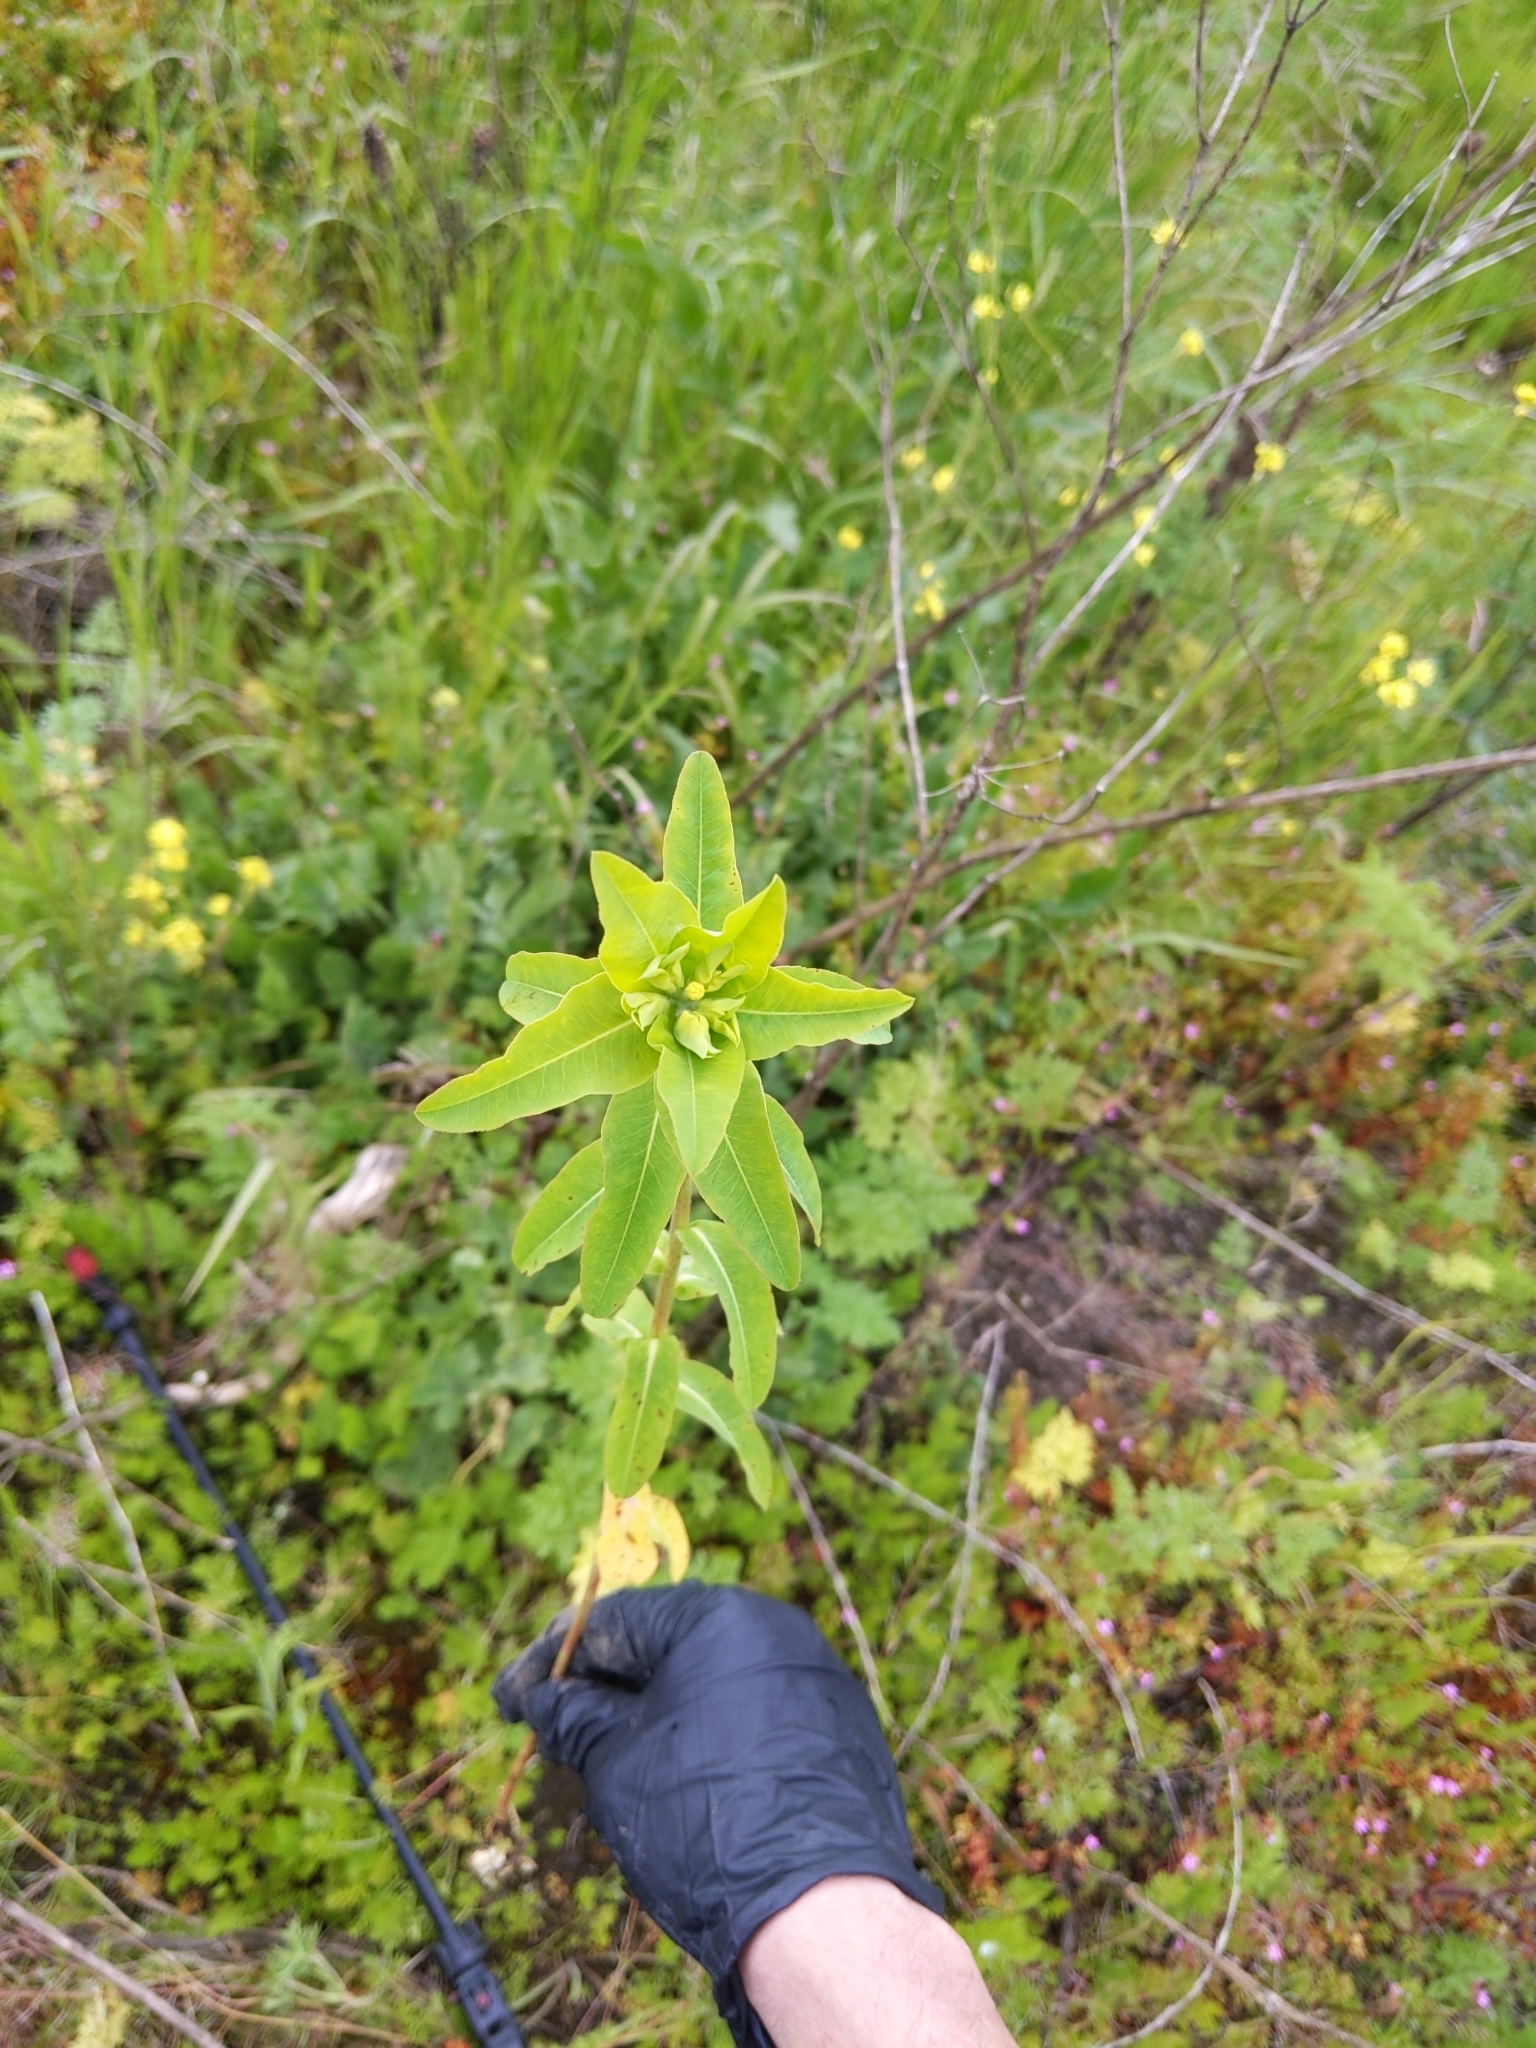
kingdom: Plantae
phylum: Tracheophyta
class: Magnoliopsida
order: Malpighiales
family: Euphorbiaceae
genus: Euphorbia
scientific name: Euphorbia oblongata
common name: Balkan spurge
